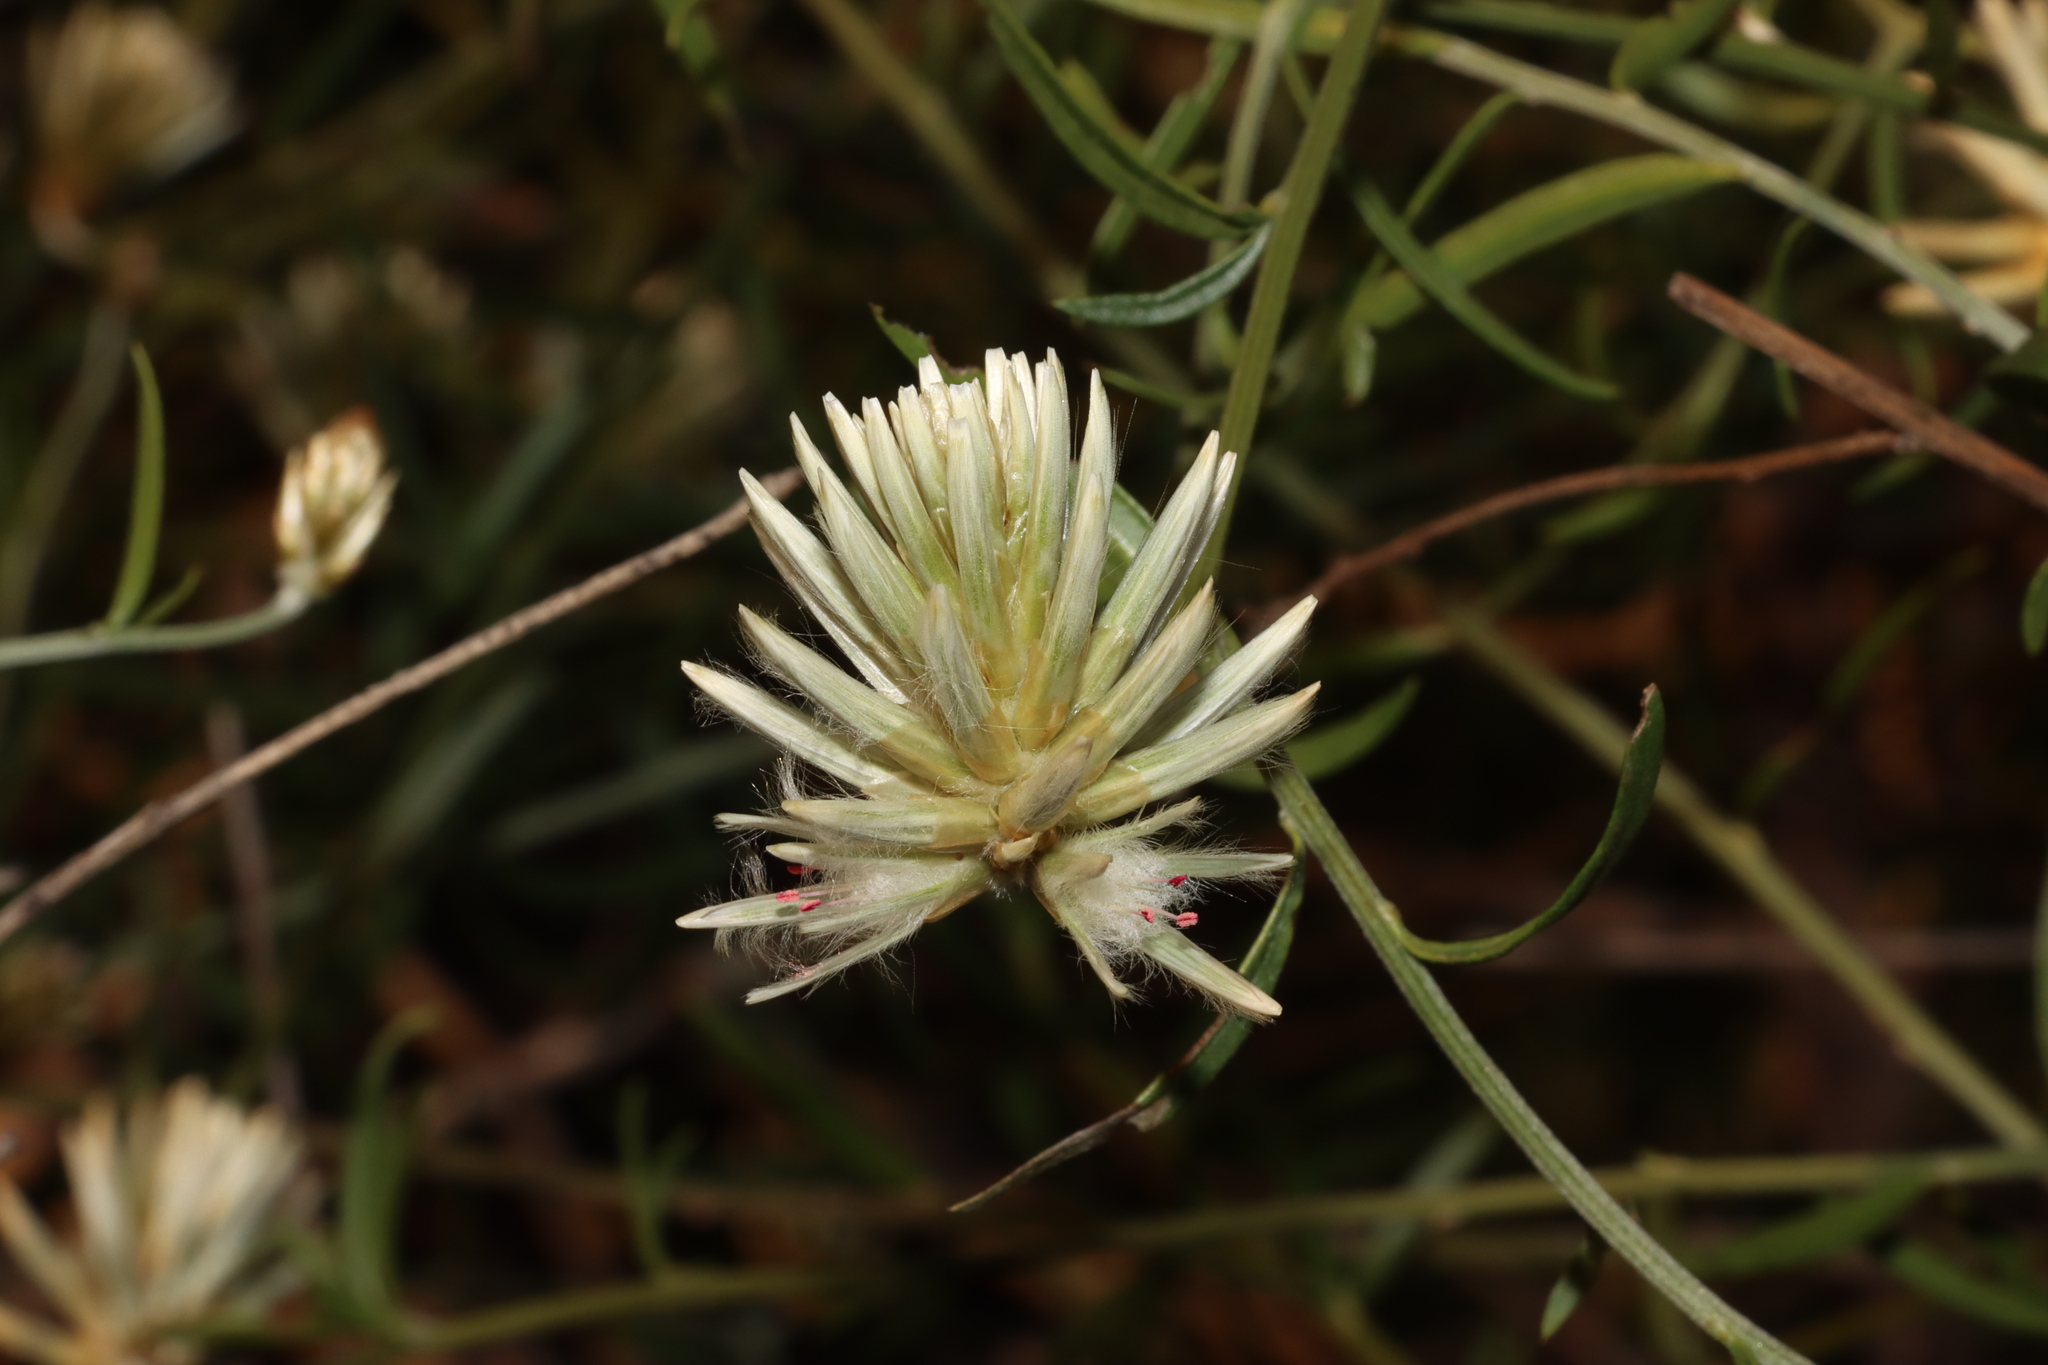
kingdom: Plantae
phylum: Tracheophyta
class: Magnoliopsida
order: Caryophyllales
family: Amaranthaceae
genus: Ptilotus
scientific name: Ptilotus divaricatus
